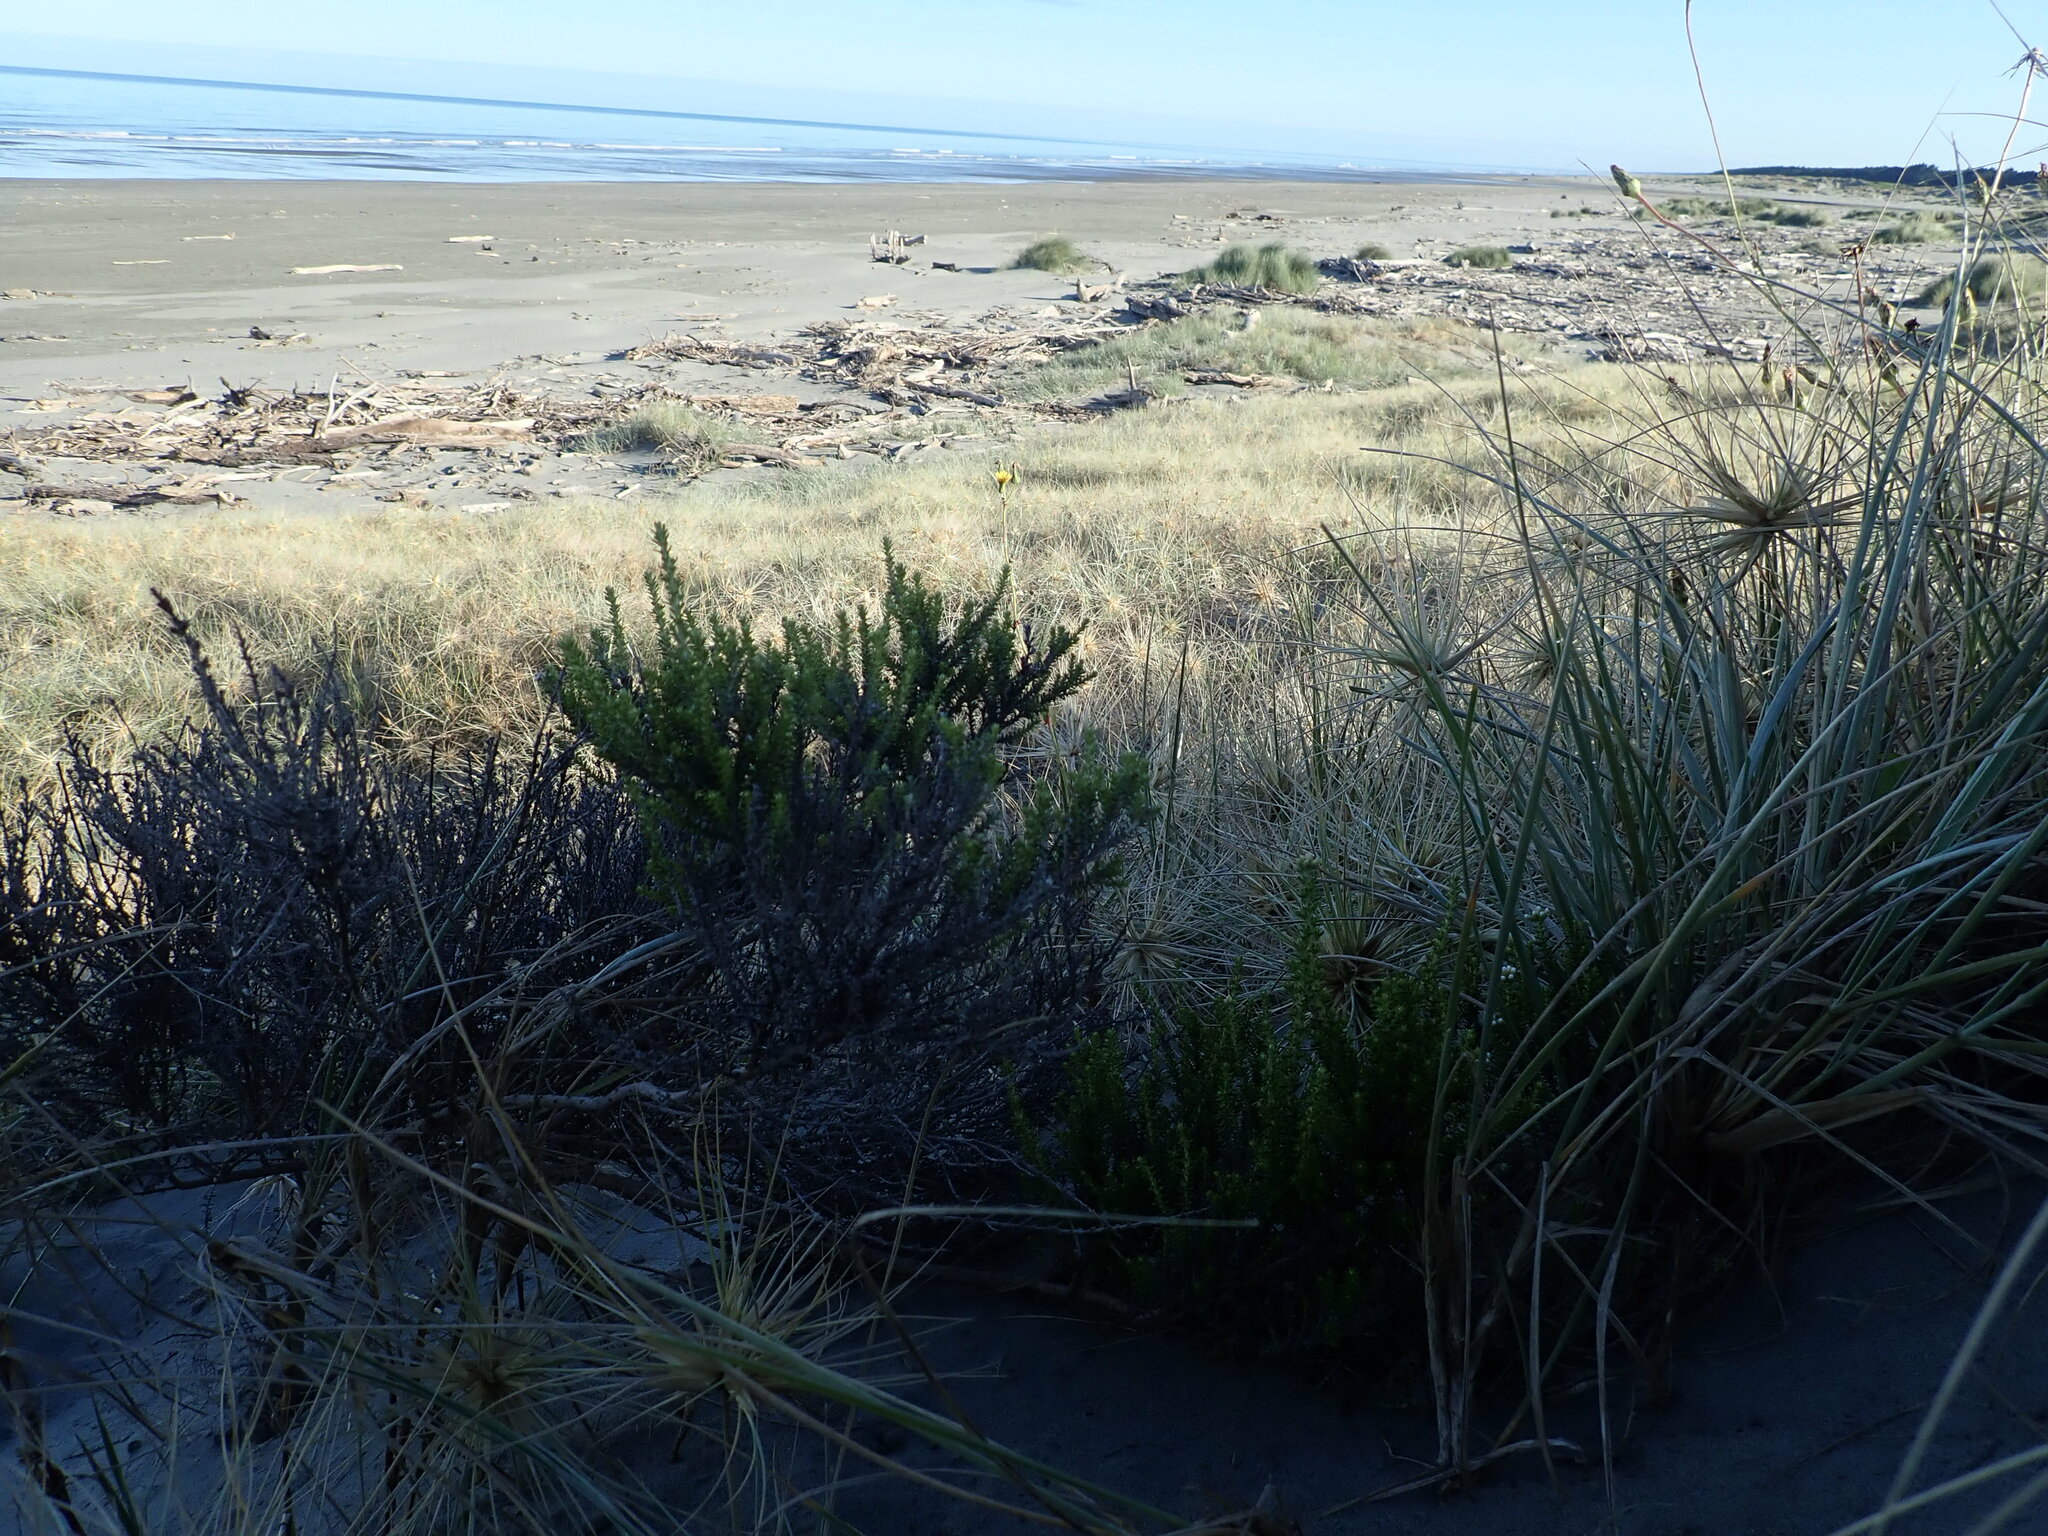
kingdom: Plantae
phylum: Tracheophyta
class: Magnoliopsida
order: Asterales
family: Asteraceae
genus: Ozothamnus
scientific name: Ozothamnus leptophyllus
